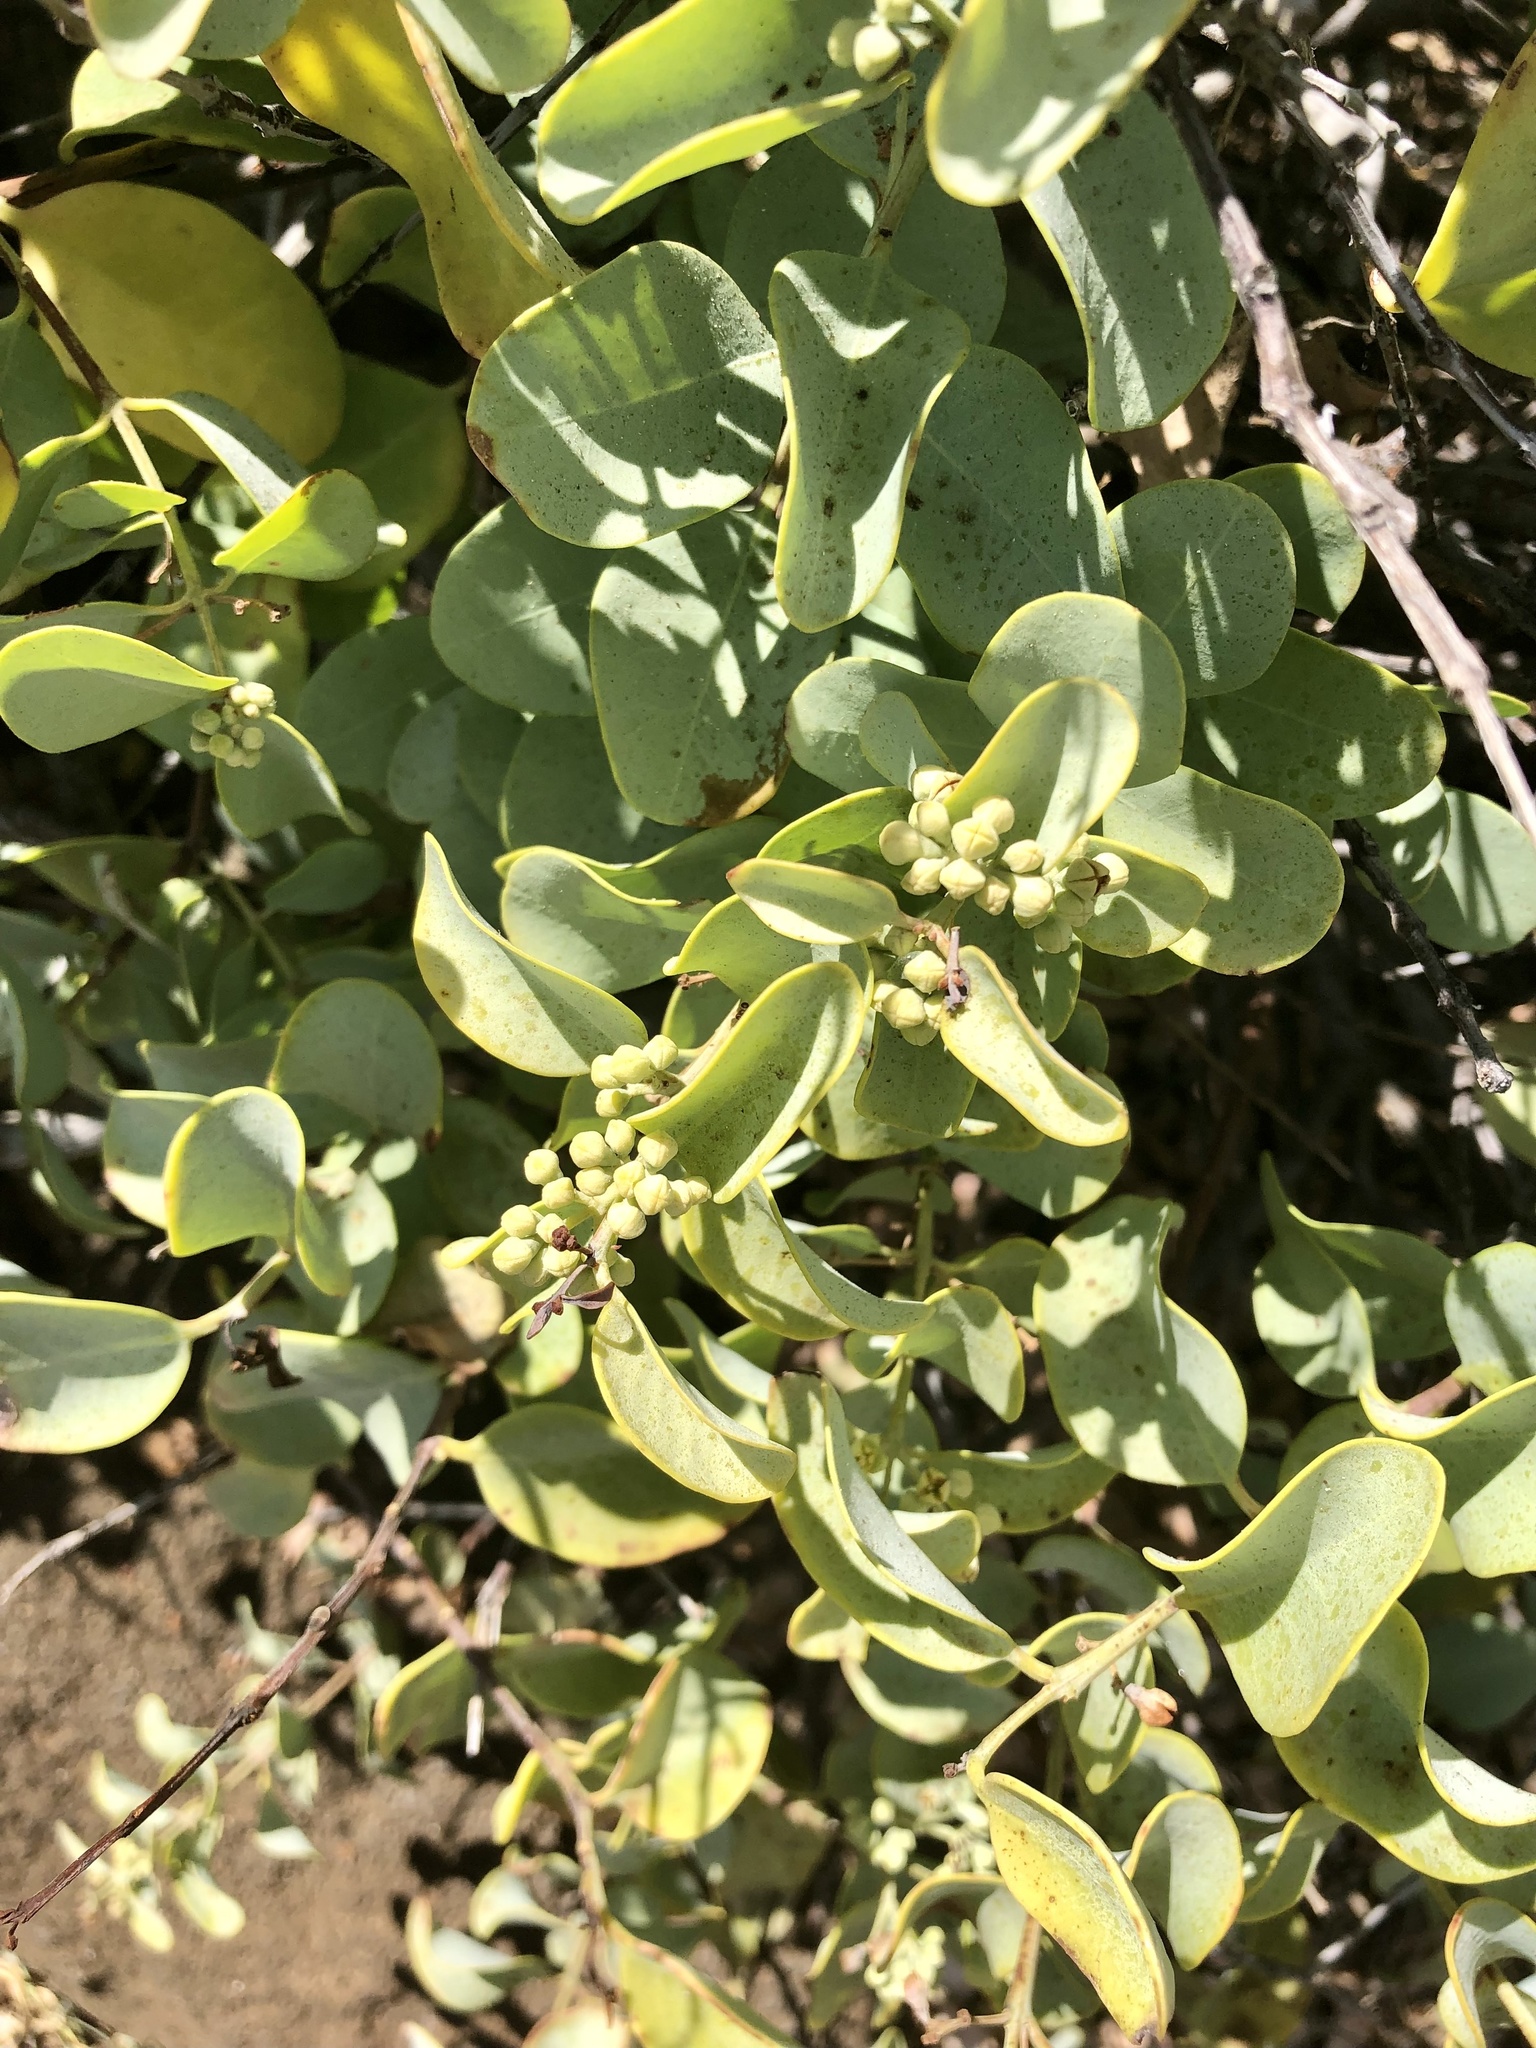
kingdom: Plantae
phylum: Tracheophyta
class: Magnoliopsida
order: Santalales
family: Santalaceae
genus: Santalum
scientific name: Santalum ellipticum
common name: Coast sandalwood
